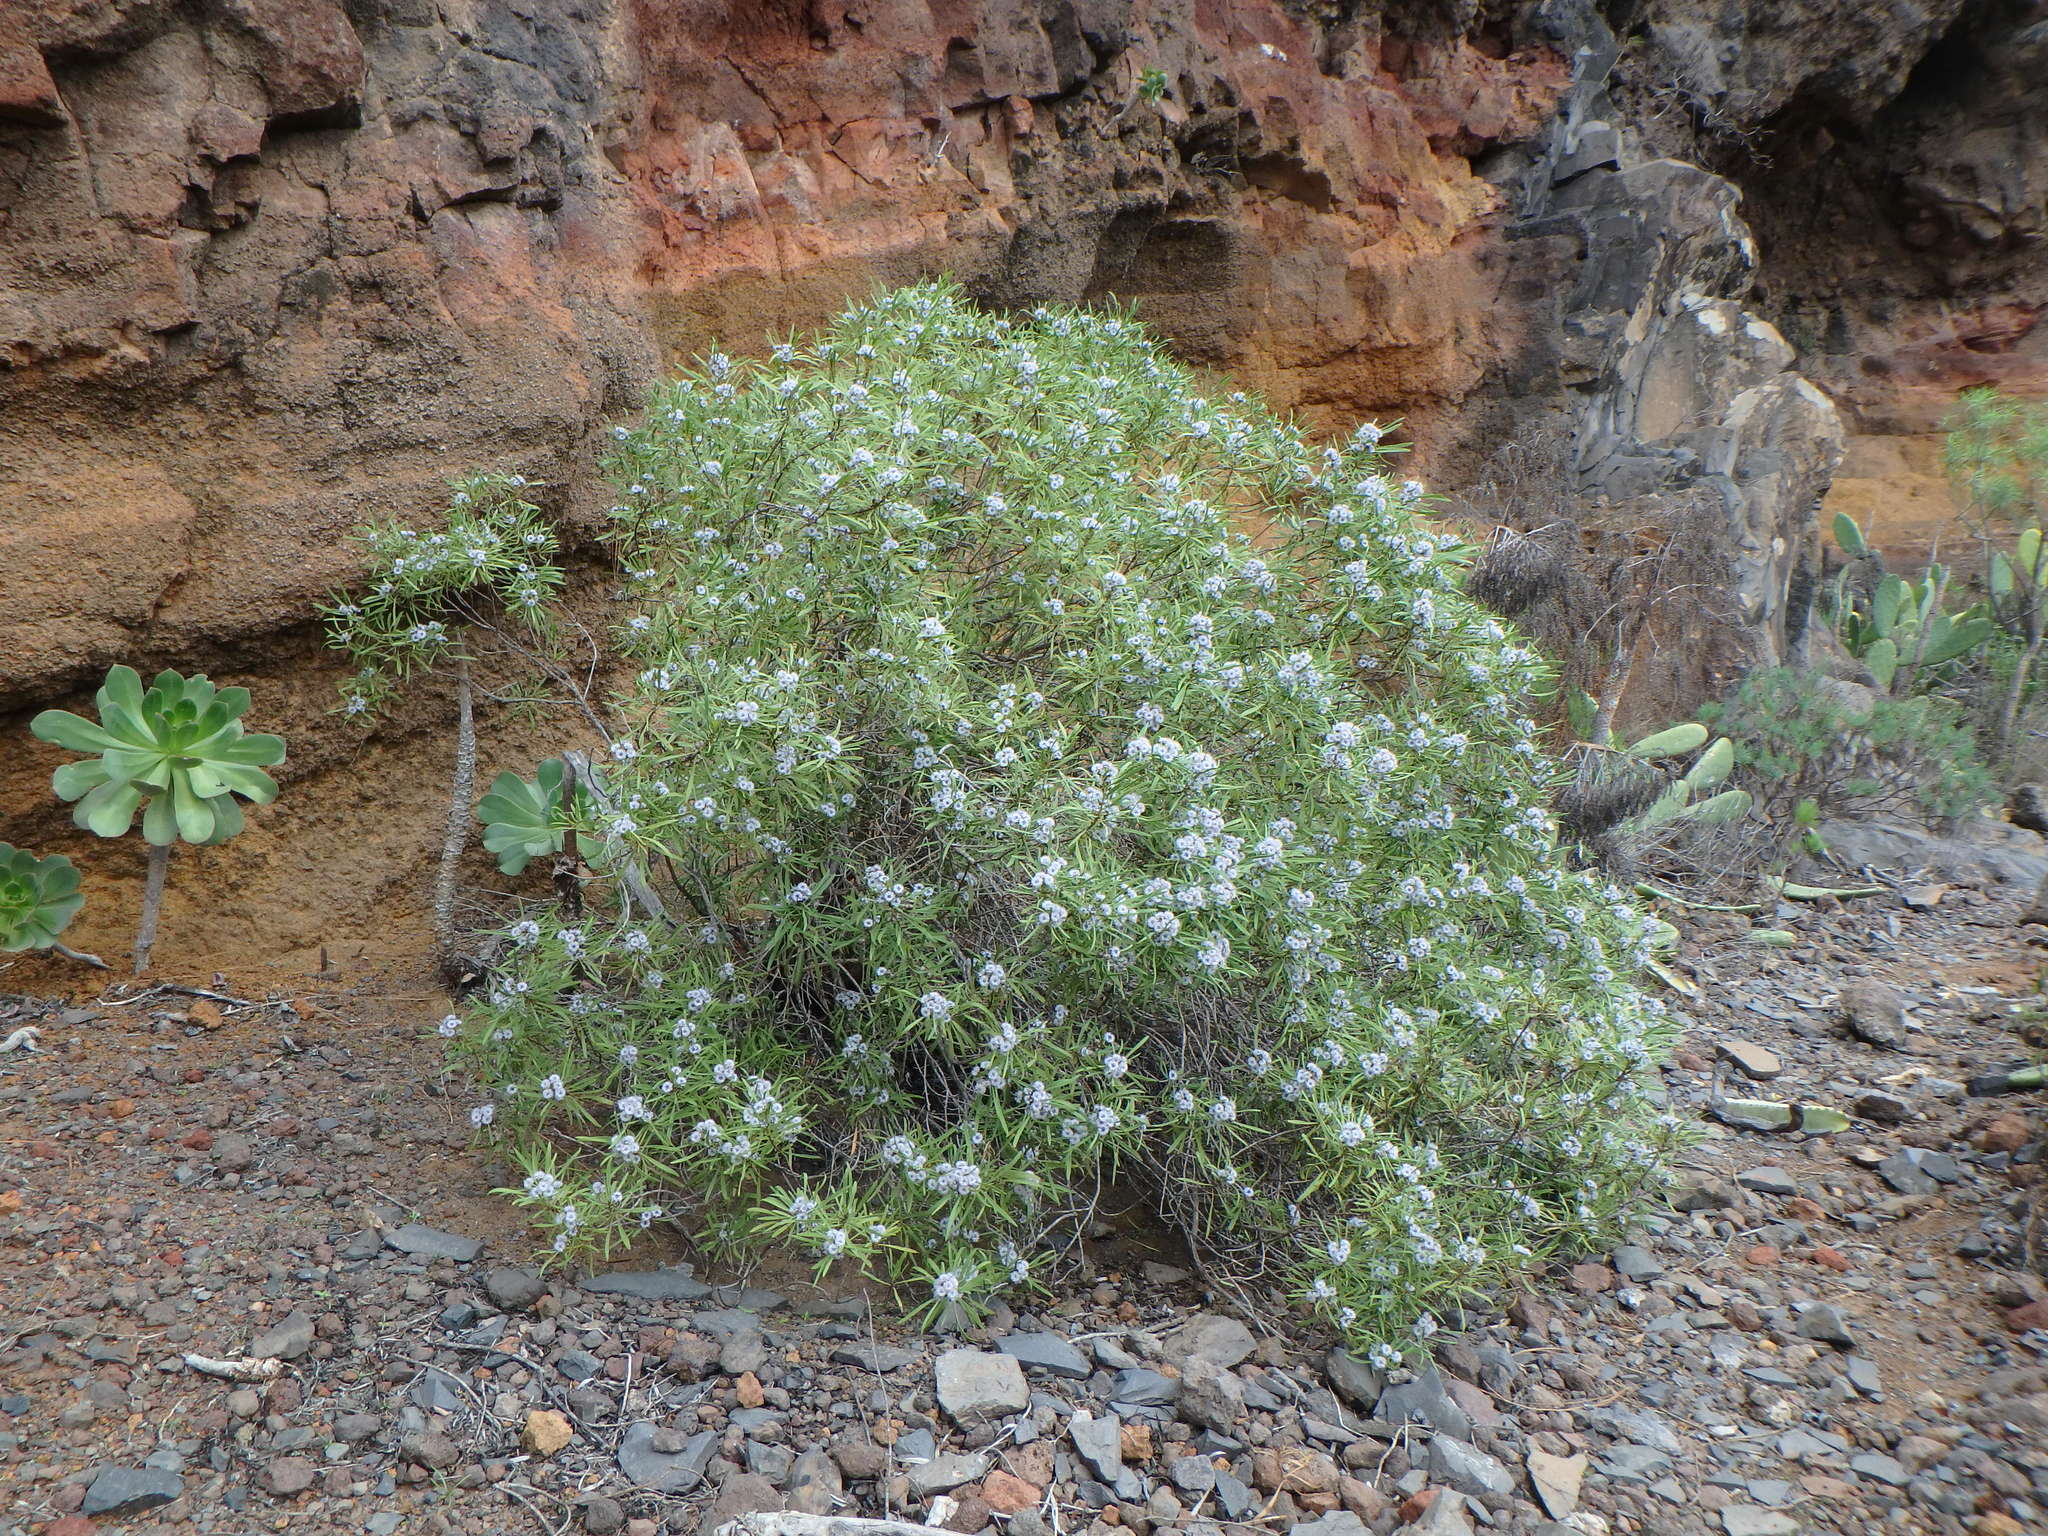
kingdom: Plantae
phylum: Tracheophyta
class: Magnoliopsida
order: Lamiales
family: Plantaginaceae
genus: Globularia
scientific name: Globularia salicina
